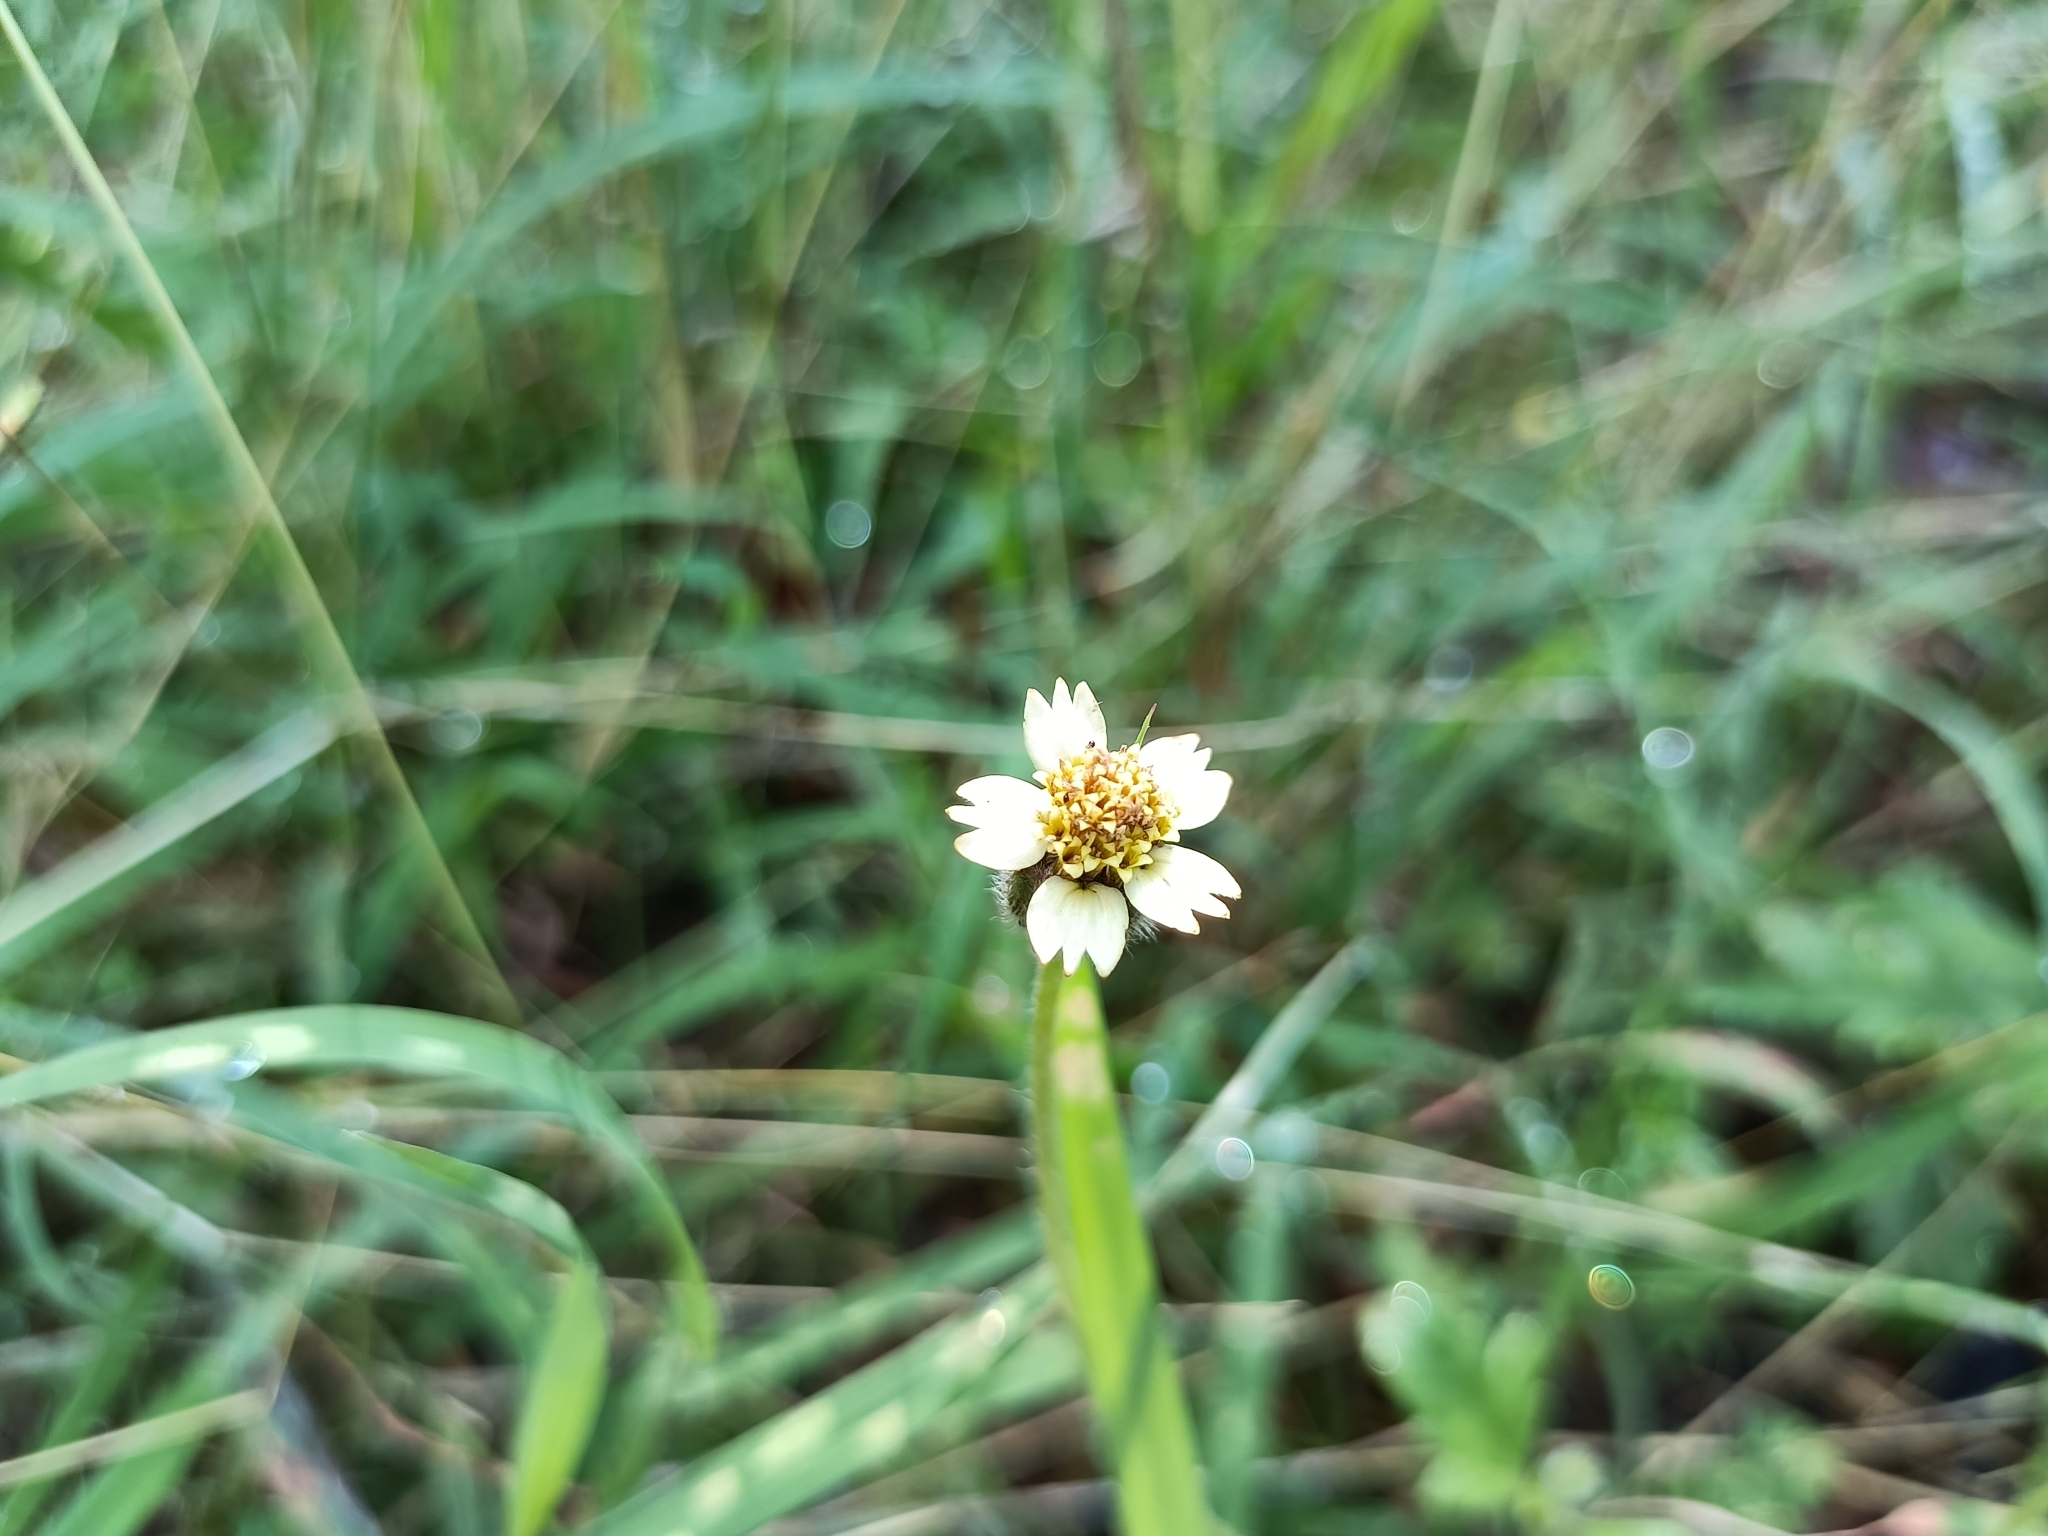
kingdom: Plantae
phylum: Tracheophyta
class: Magnoliopsida
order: Asterales
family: Asteraceae
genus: Tridax
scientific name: Tridax procumbens
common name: Coatbuttons
